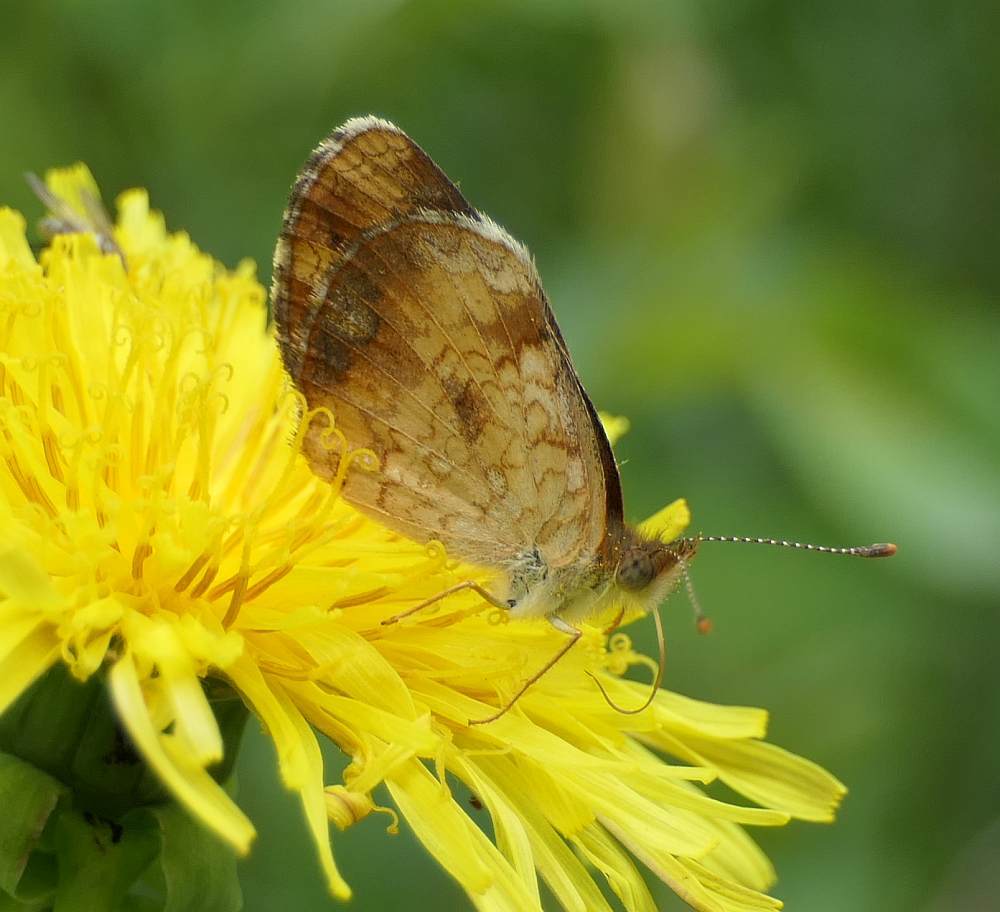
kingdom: Animalia
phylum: Arthropoda
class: Insecta
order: Lepidoptera
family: Nymphalidae
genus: Phyciodes
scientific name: Phyciodes tharos
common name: Pearl crescent
